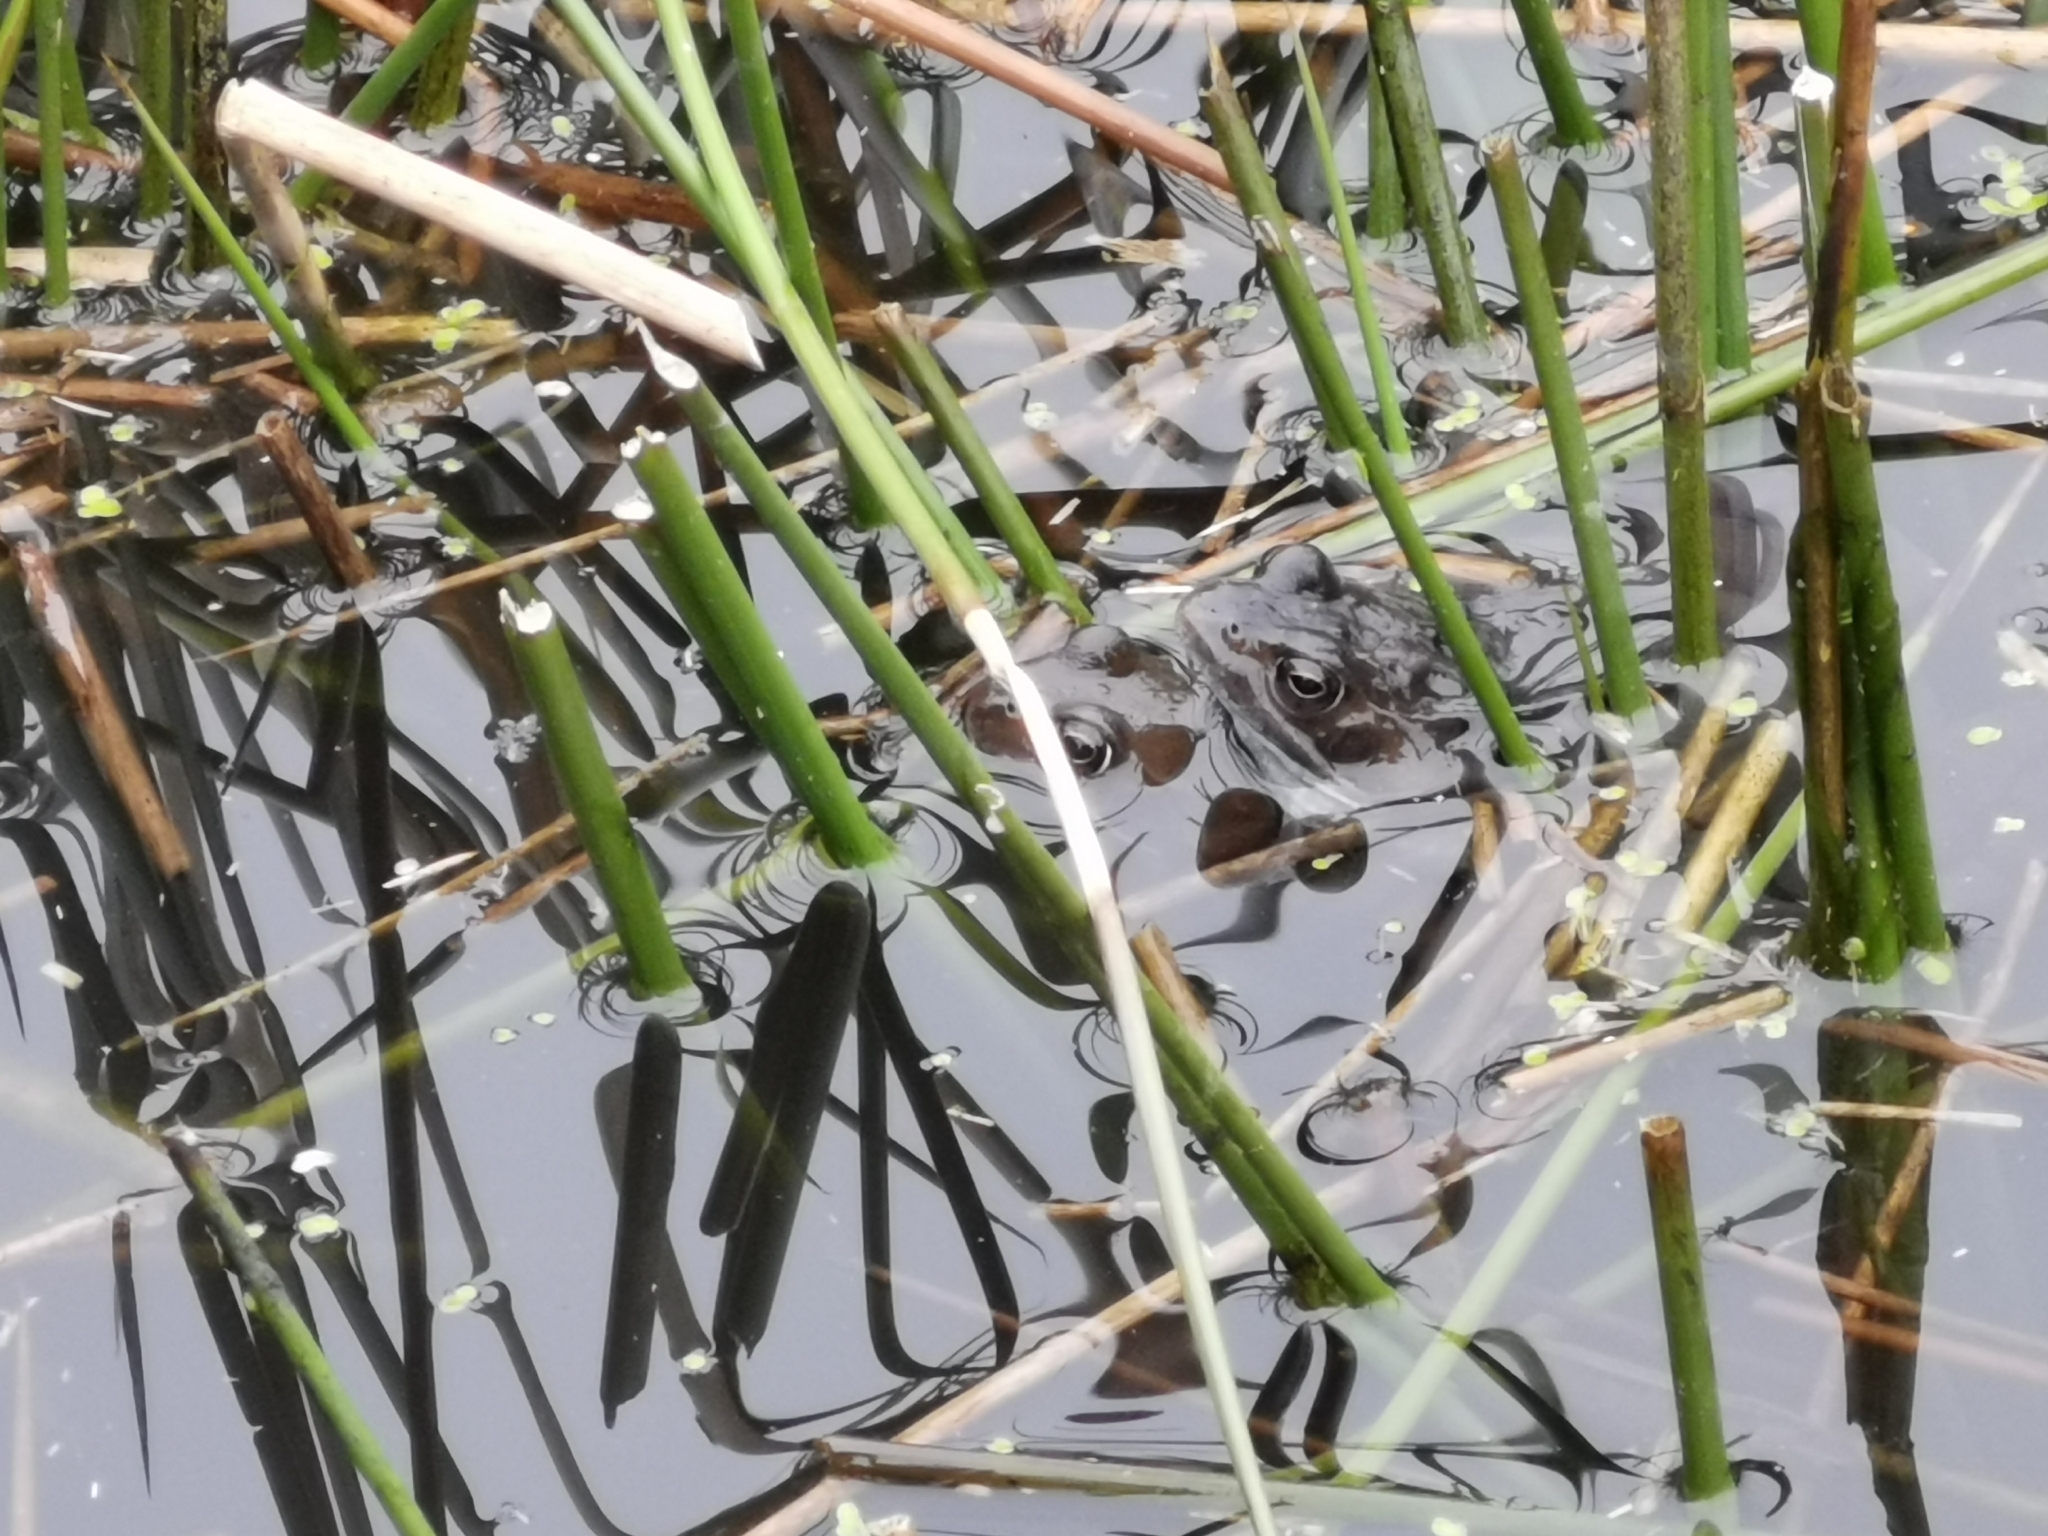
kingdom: Animalia
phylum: Chordata
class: Amphibia
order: Anura
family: Ranidae
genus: Rana
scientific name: Rana temporaria
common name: Common frog
